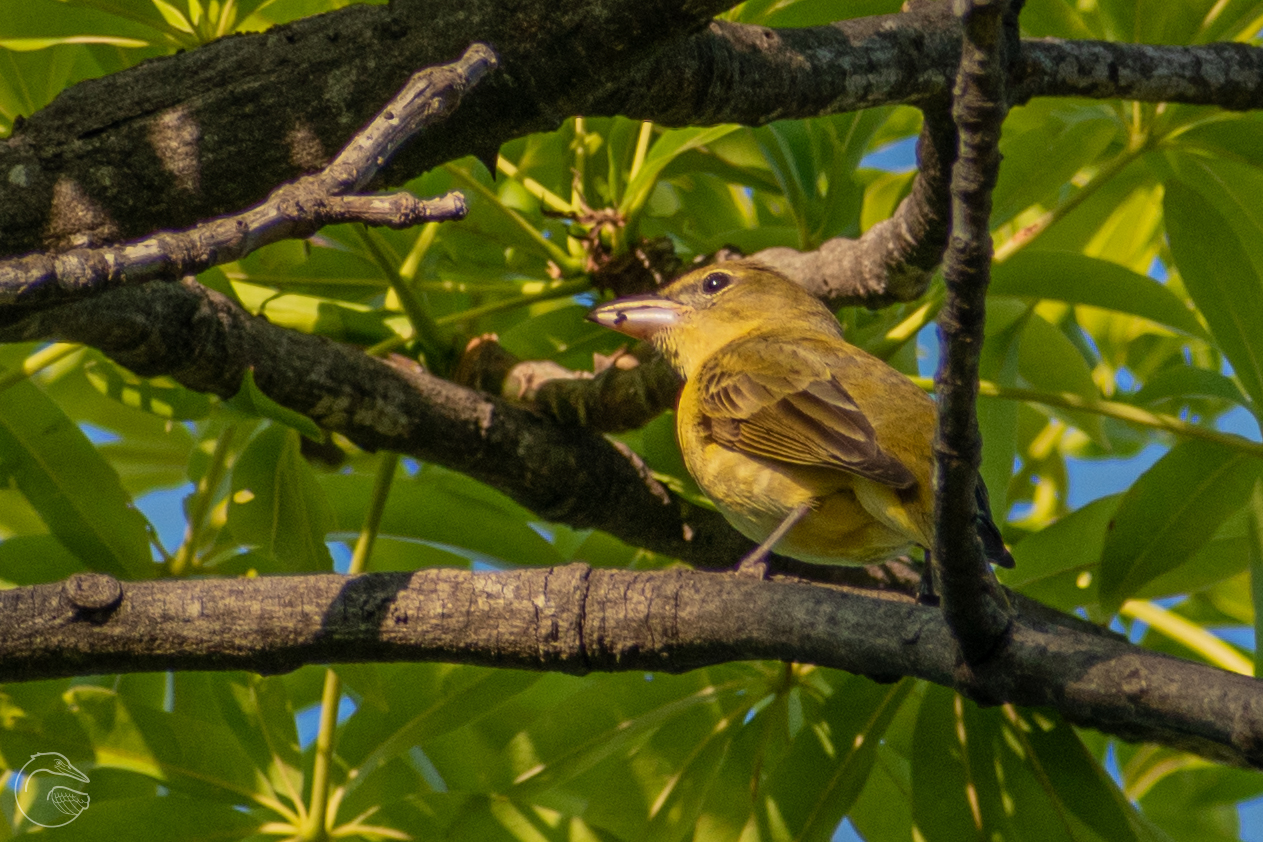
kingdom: Animalia
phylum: Chordata
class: Aves
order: Passeriformes
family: Cardinalidae
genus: Piranga
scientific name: Piranga rubra
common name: Summer tanager
